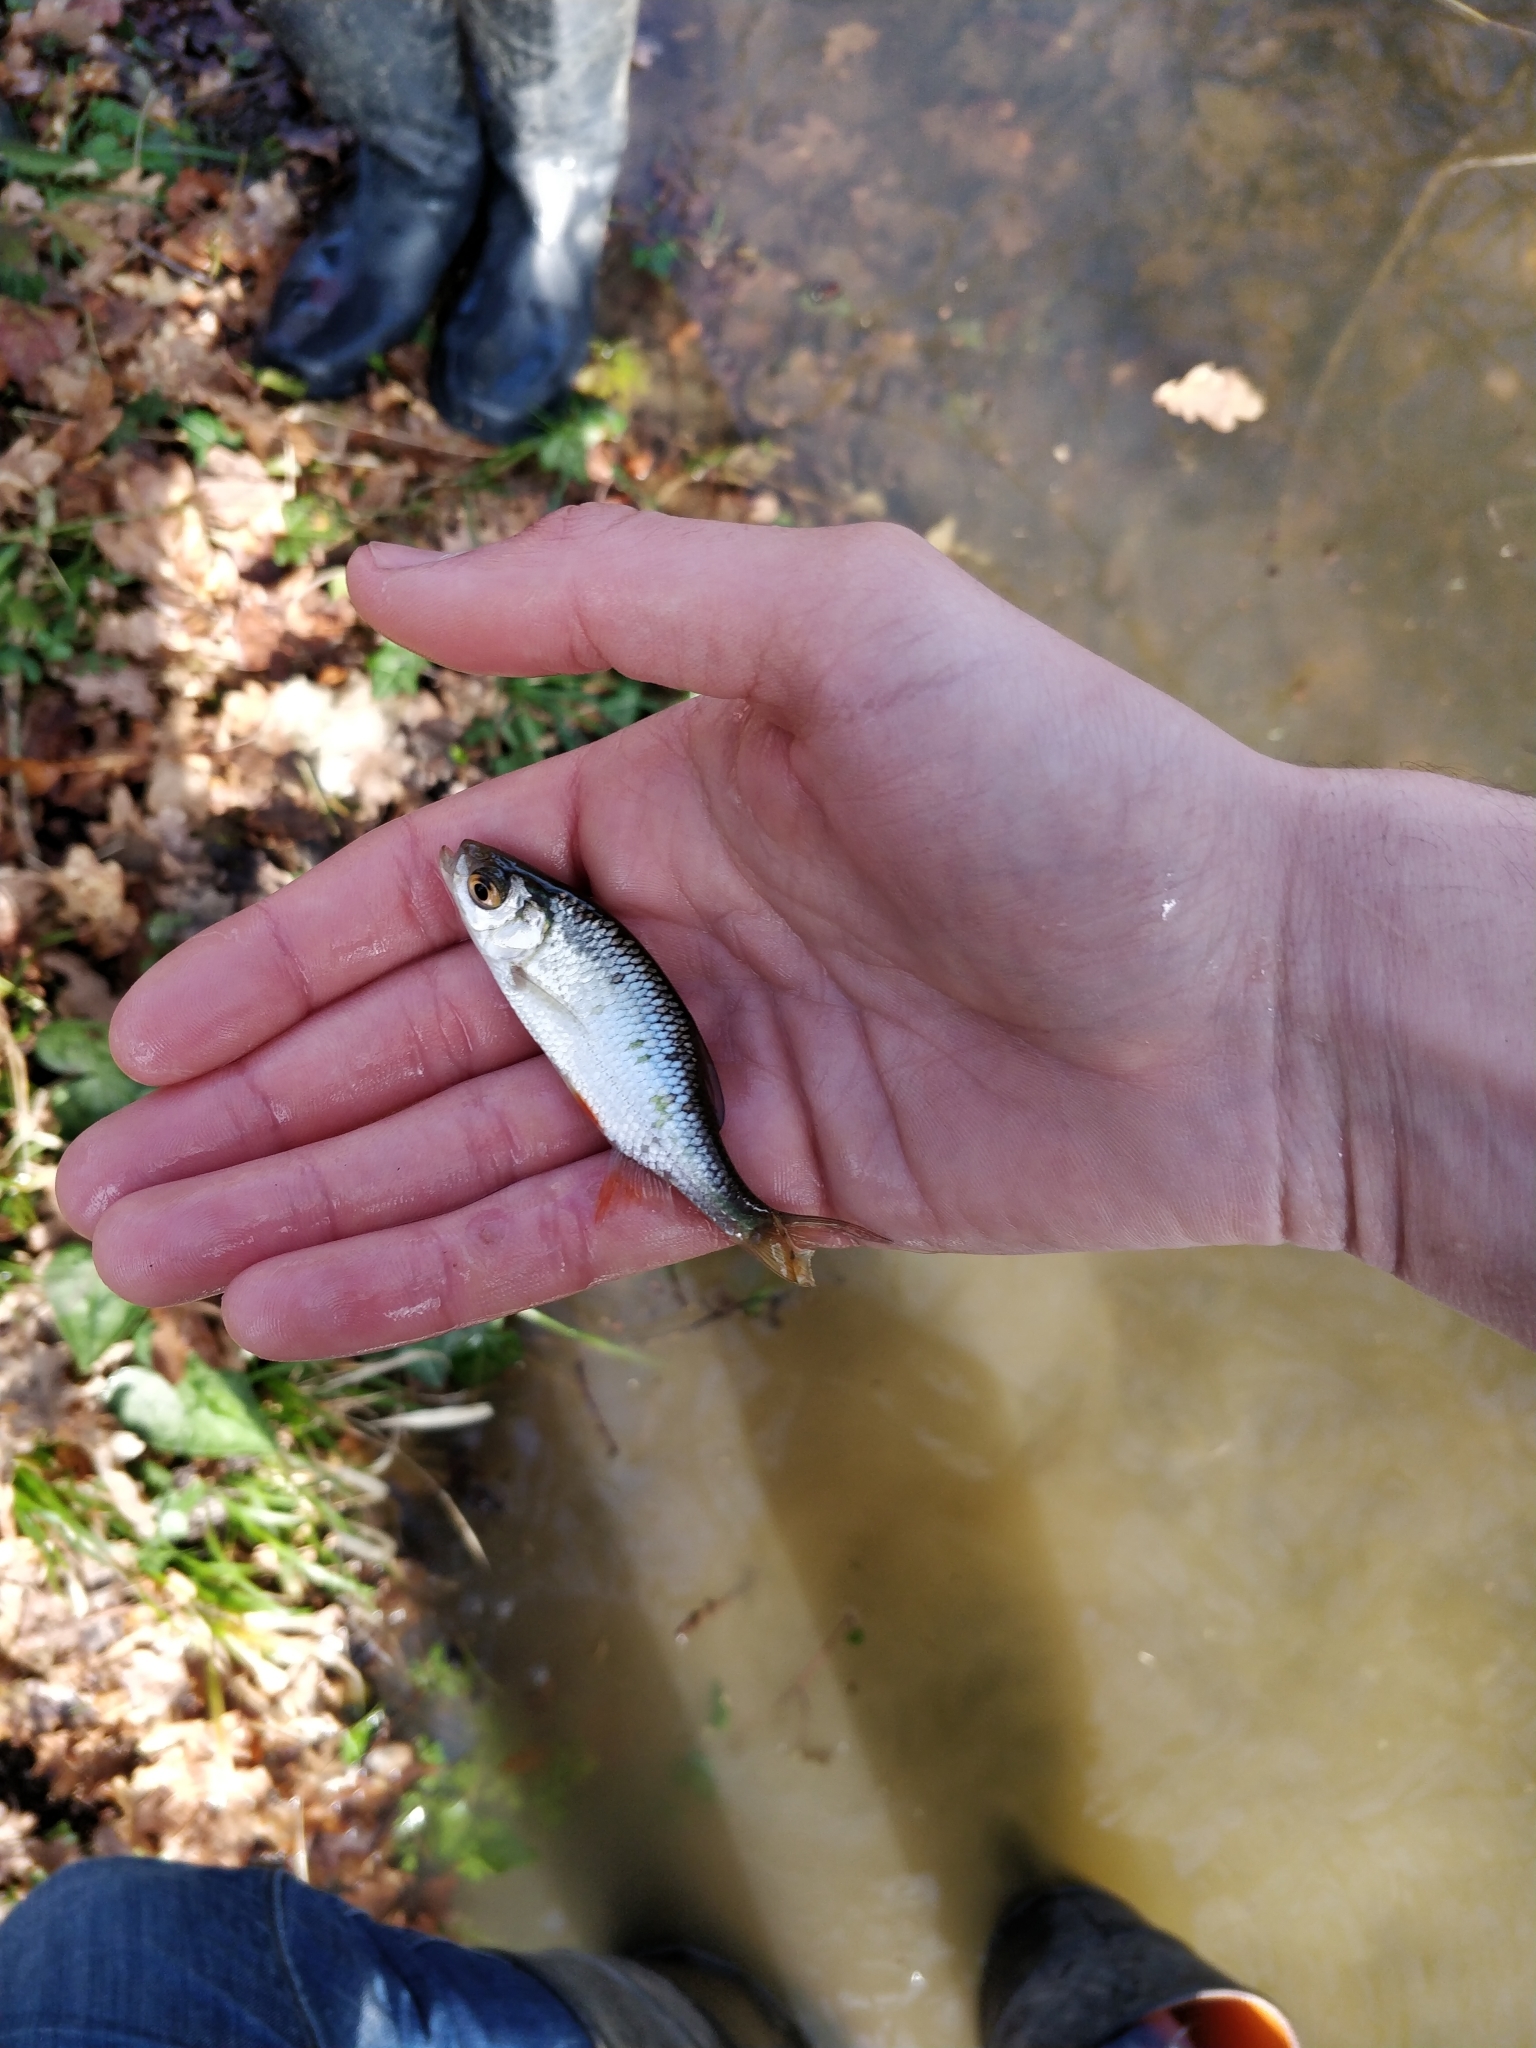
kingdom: Animalia
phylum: Chordata
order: Cypriniformes
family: Cyprinidae
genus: Rutilus
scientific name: Rutilus rutilus
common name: Roach
